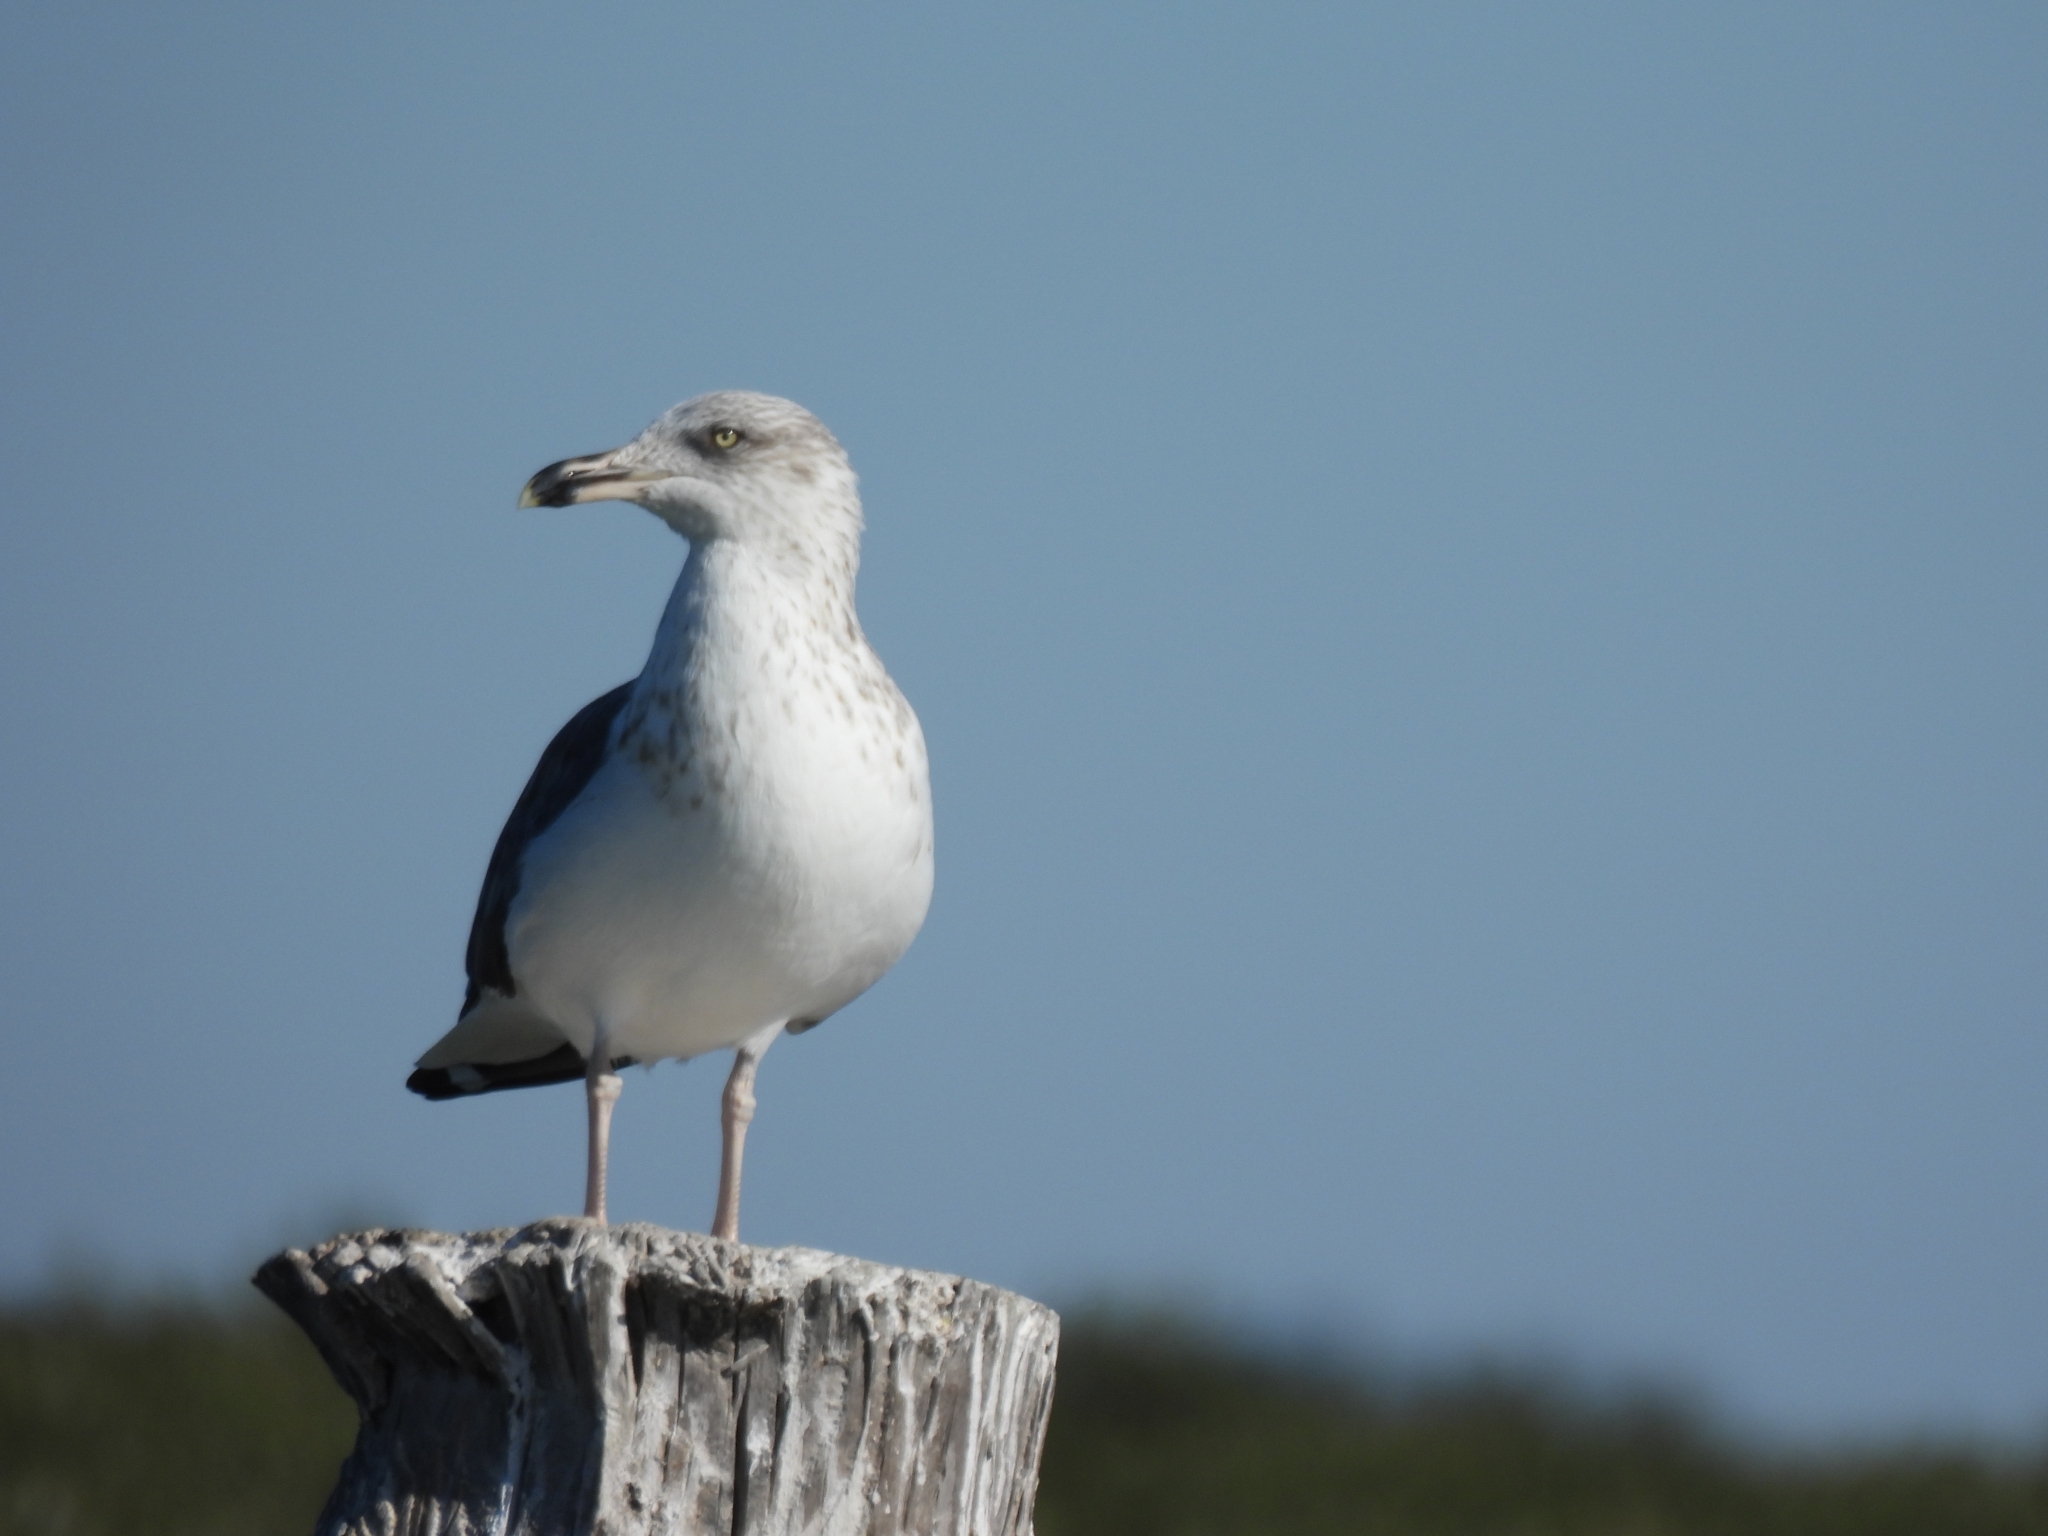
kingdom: Animalia
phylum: Chordata
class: Aves
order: Charadriiformes
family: Laridae
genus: Larus
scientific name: Larus fuscus
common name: Lesser black-backed gull
